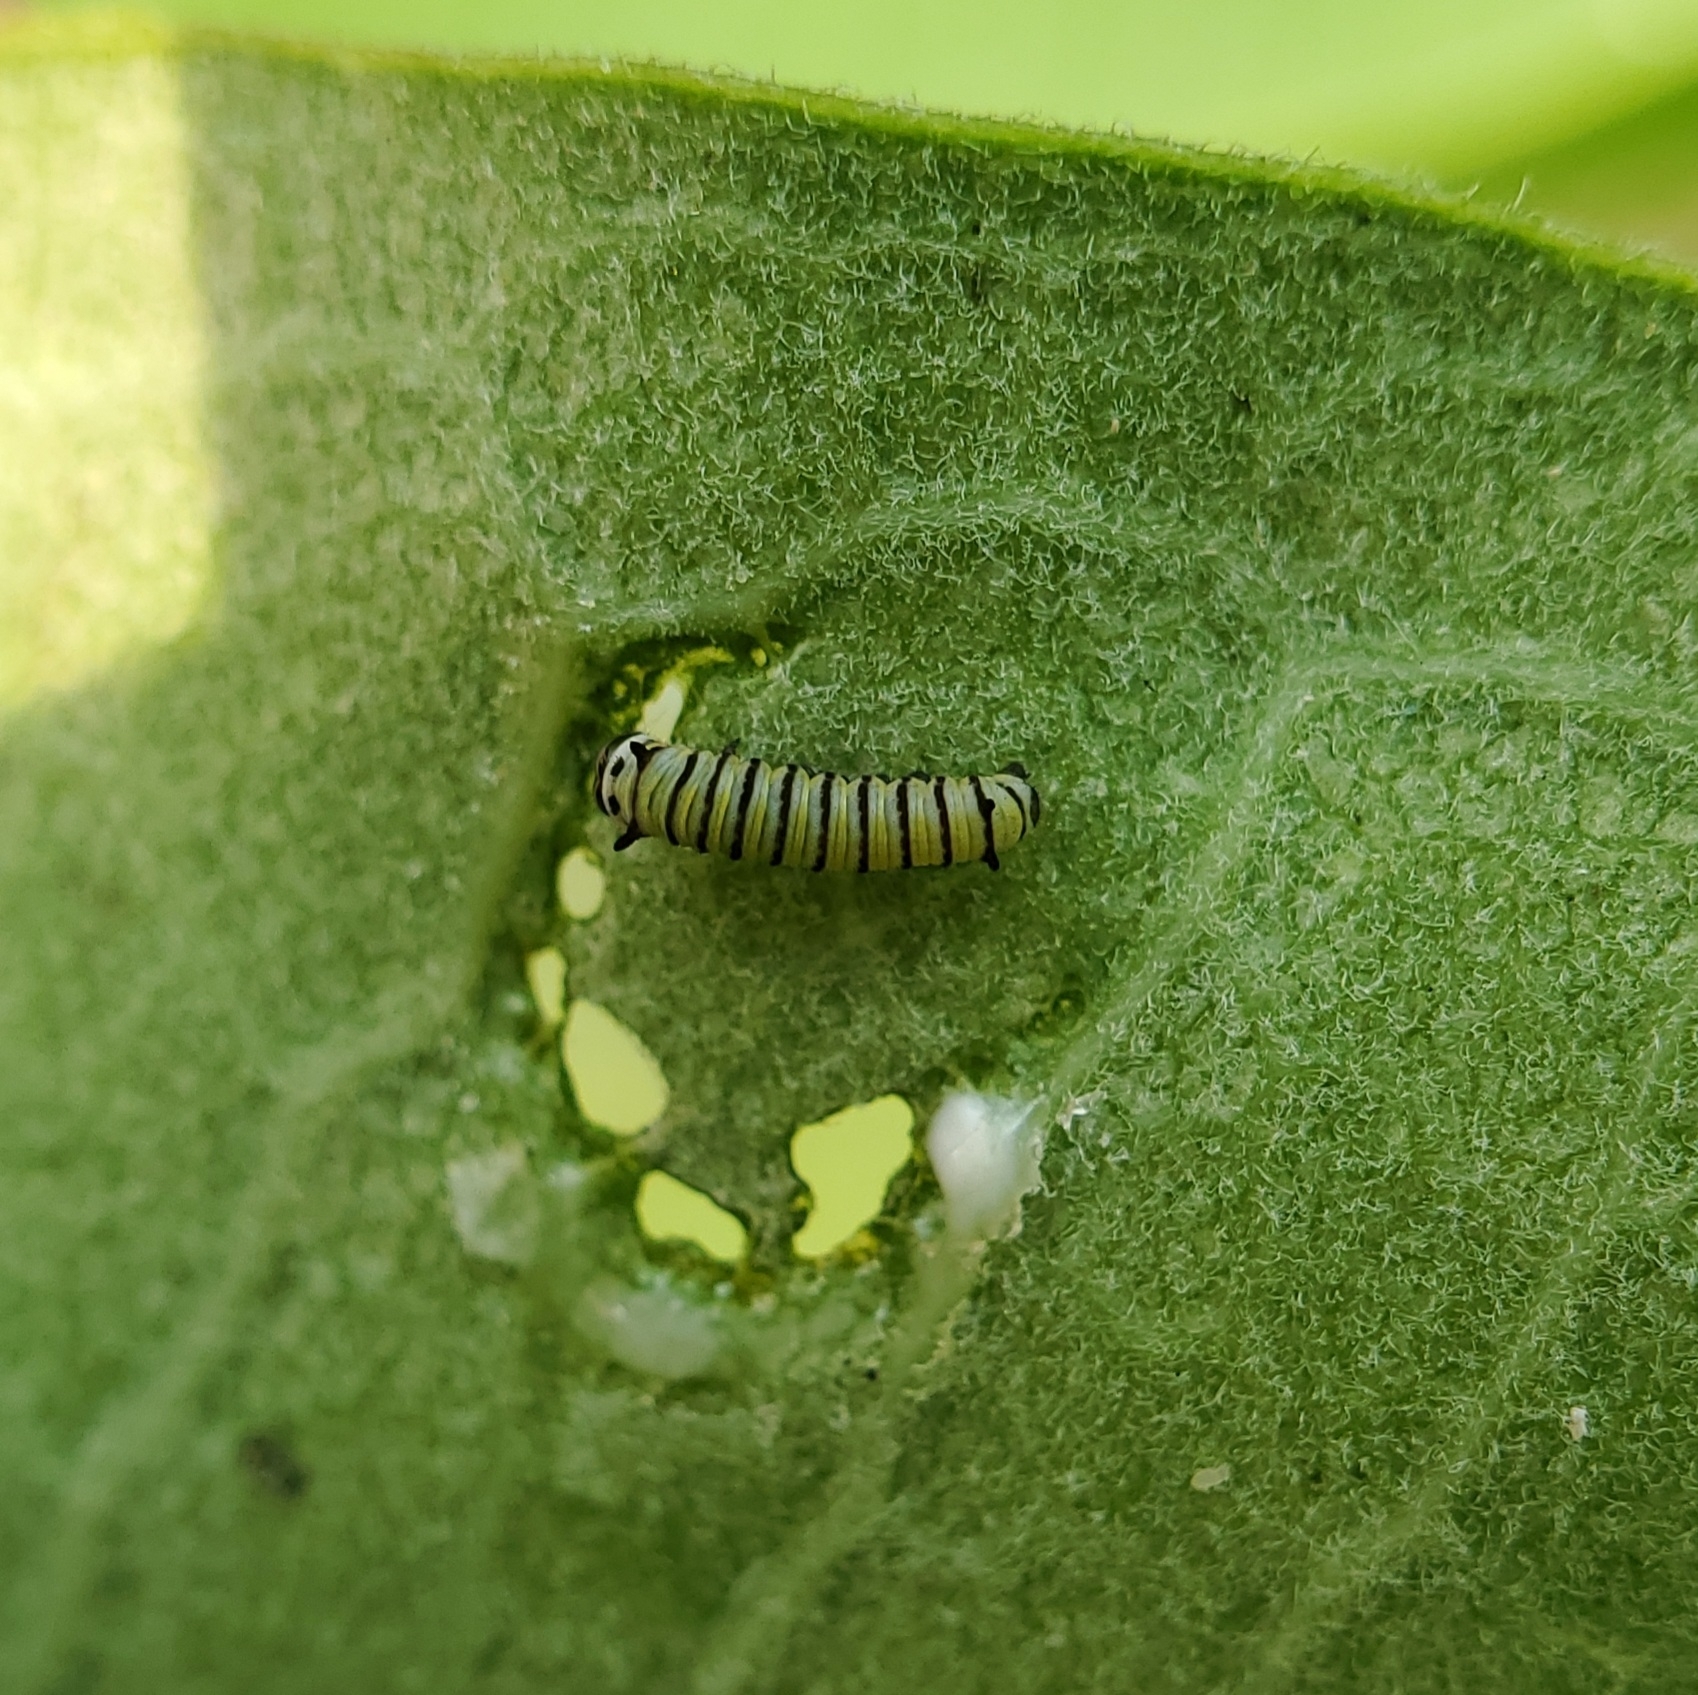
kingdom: Animalia
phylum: Arthropoda
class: Insecta
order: Lepidoptera
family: Nymphalidae
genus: Danaus
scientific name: Danaus plexippus
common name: Monarch
